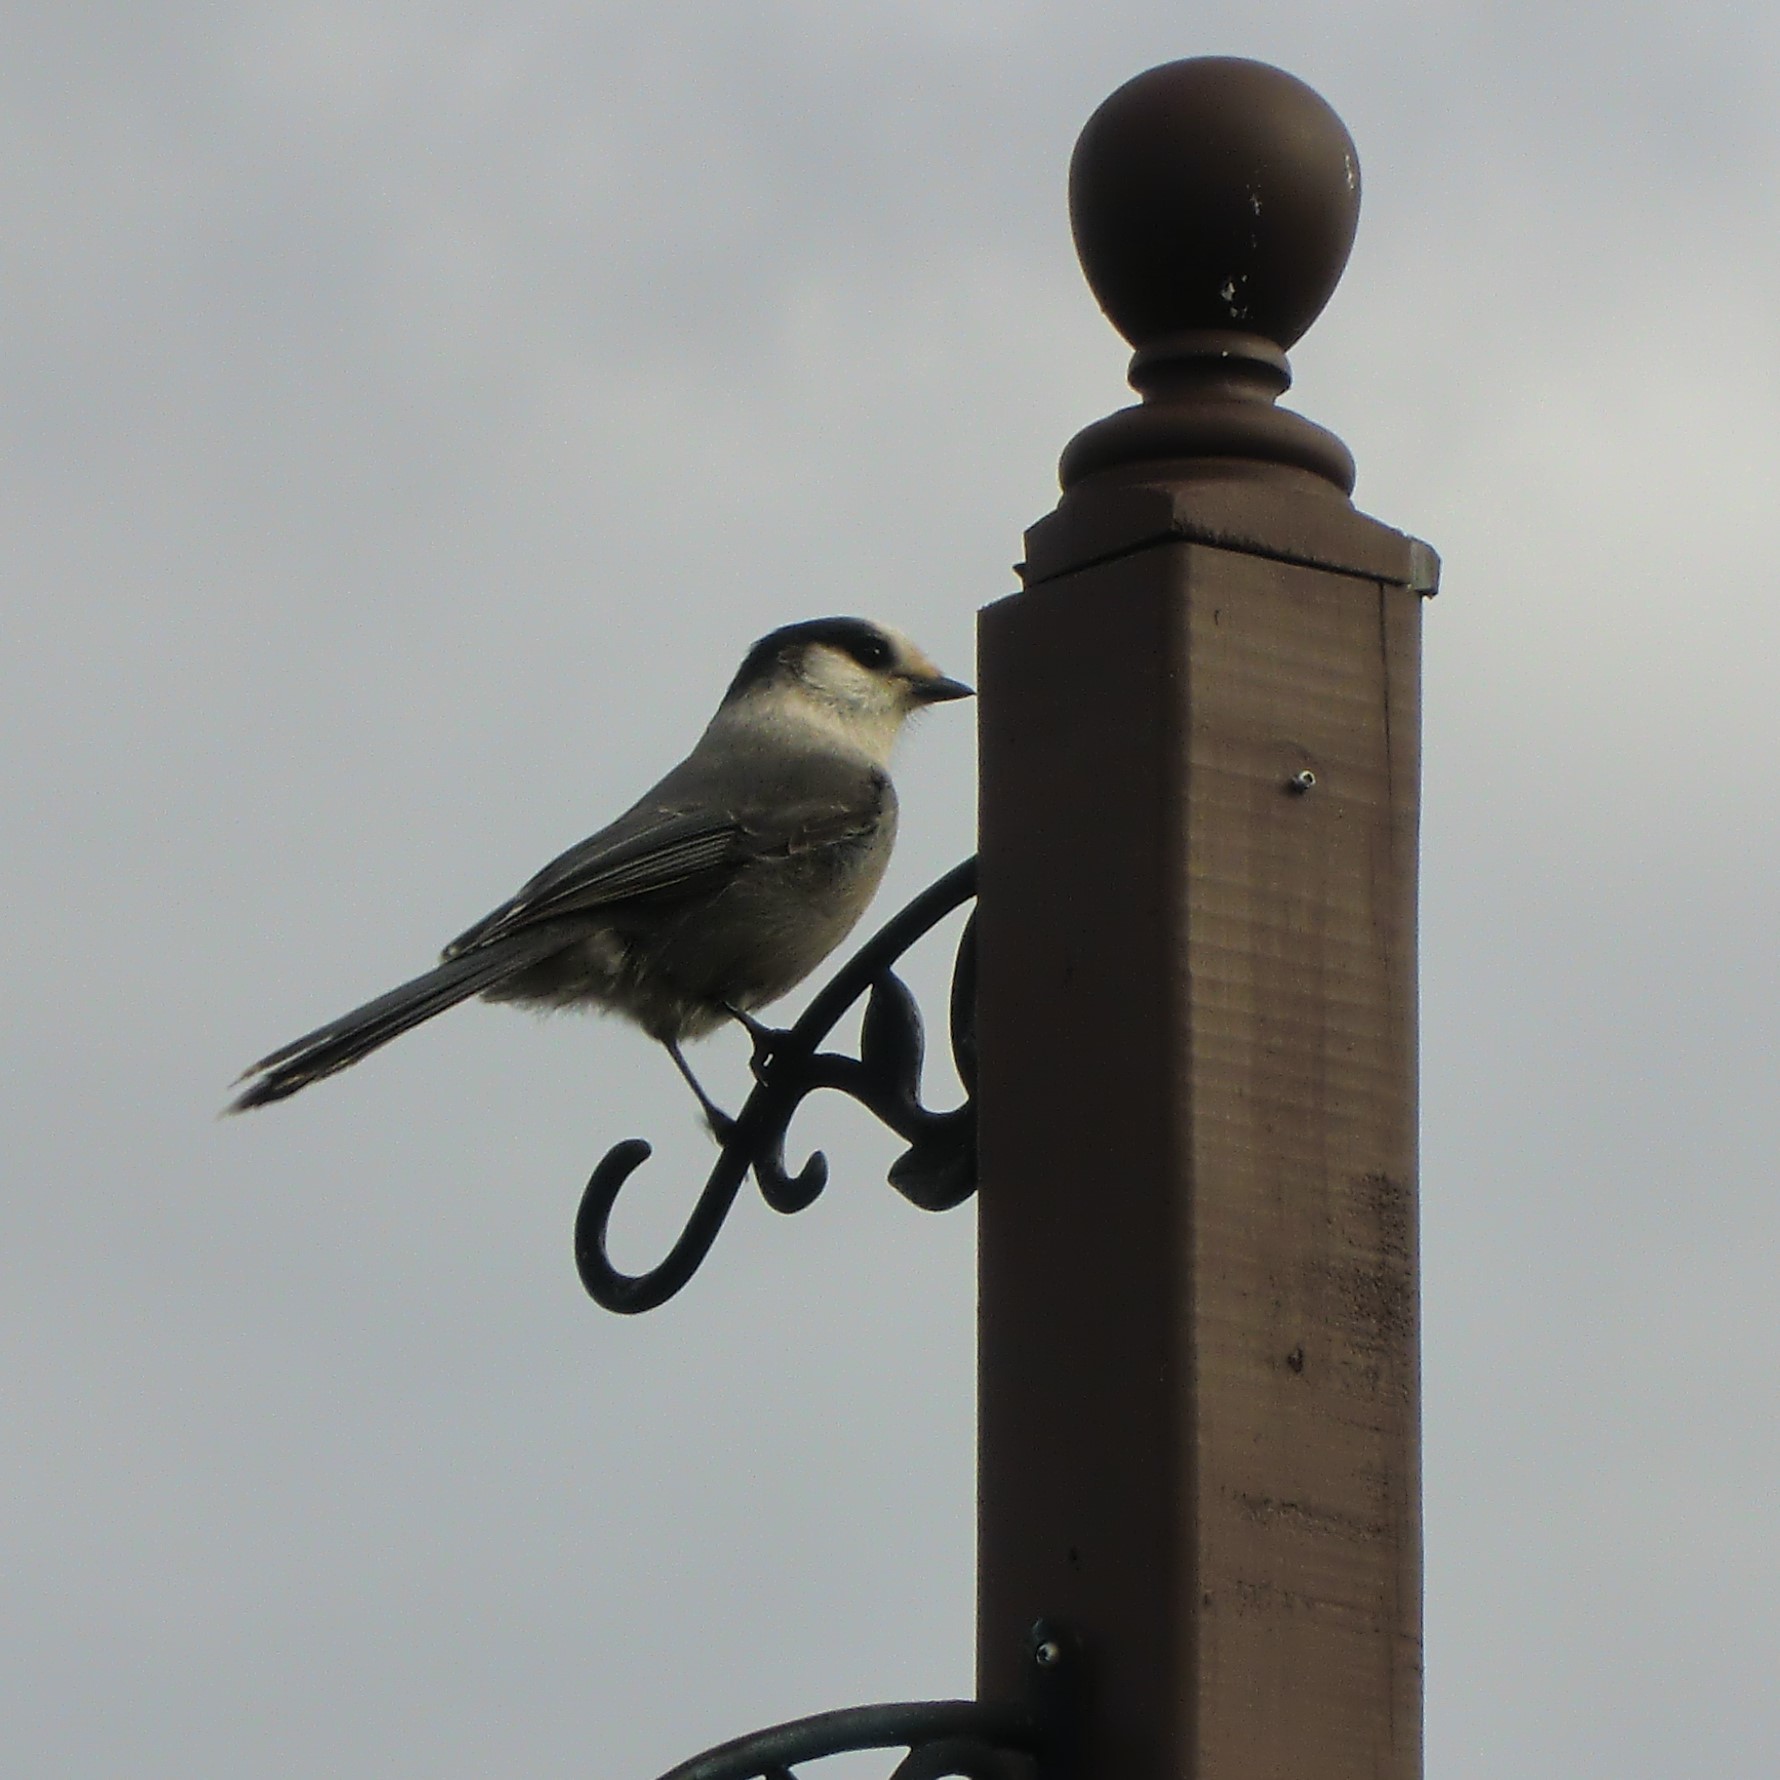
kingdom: Animalia
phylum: Chordata
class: Aves
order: Passeriformes
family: Corvidae
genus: Perisoreus
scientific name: Perisoreus canadensis
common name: Gray jay
